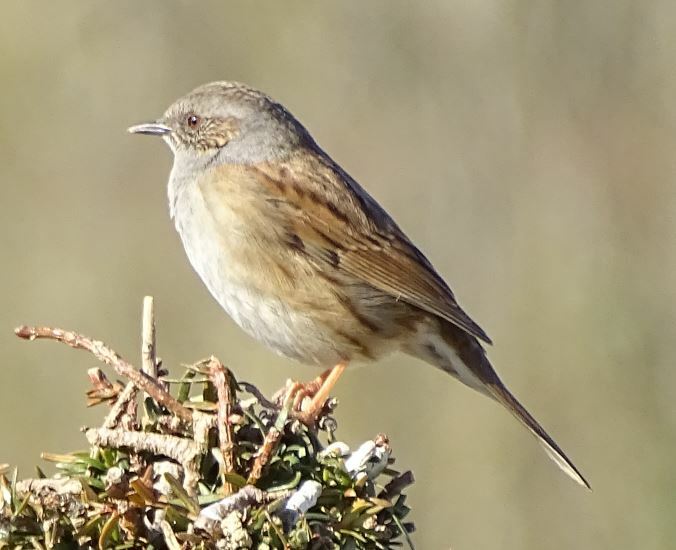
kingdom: Animalia
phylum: Chordata
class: Aves
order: Passeriformes
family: Prunellidae
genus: Prunella
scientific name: Prunella modularis
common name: Dunnock
